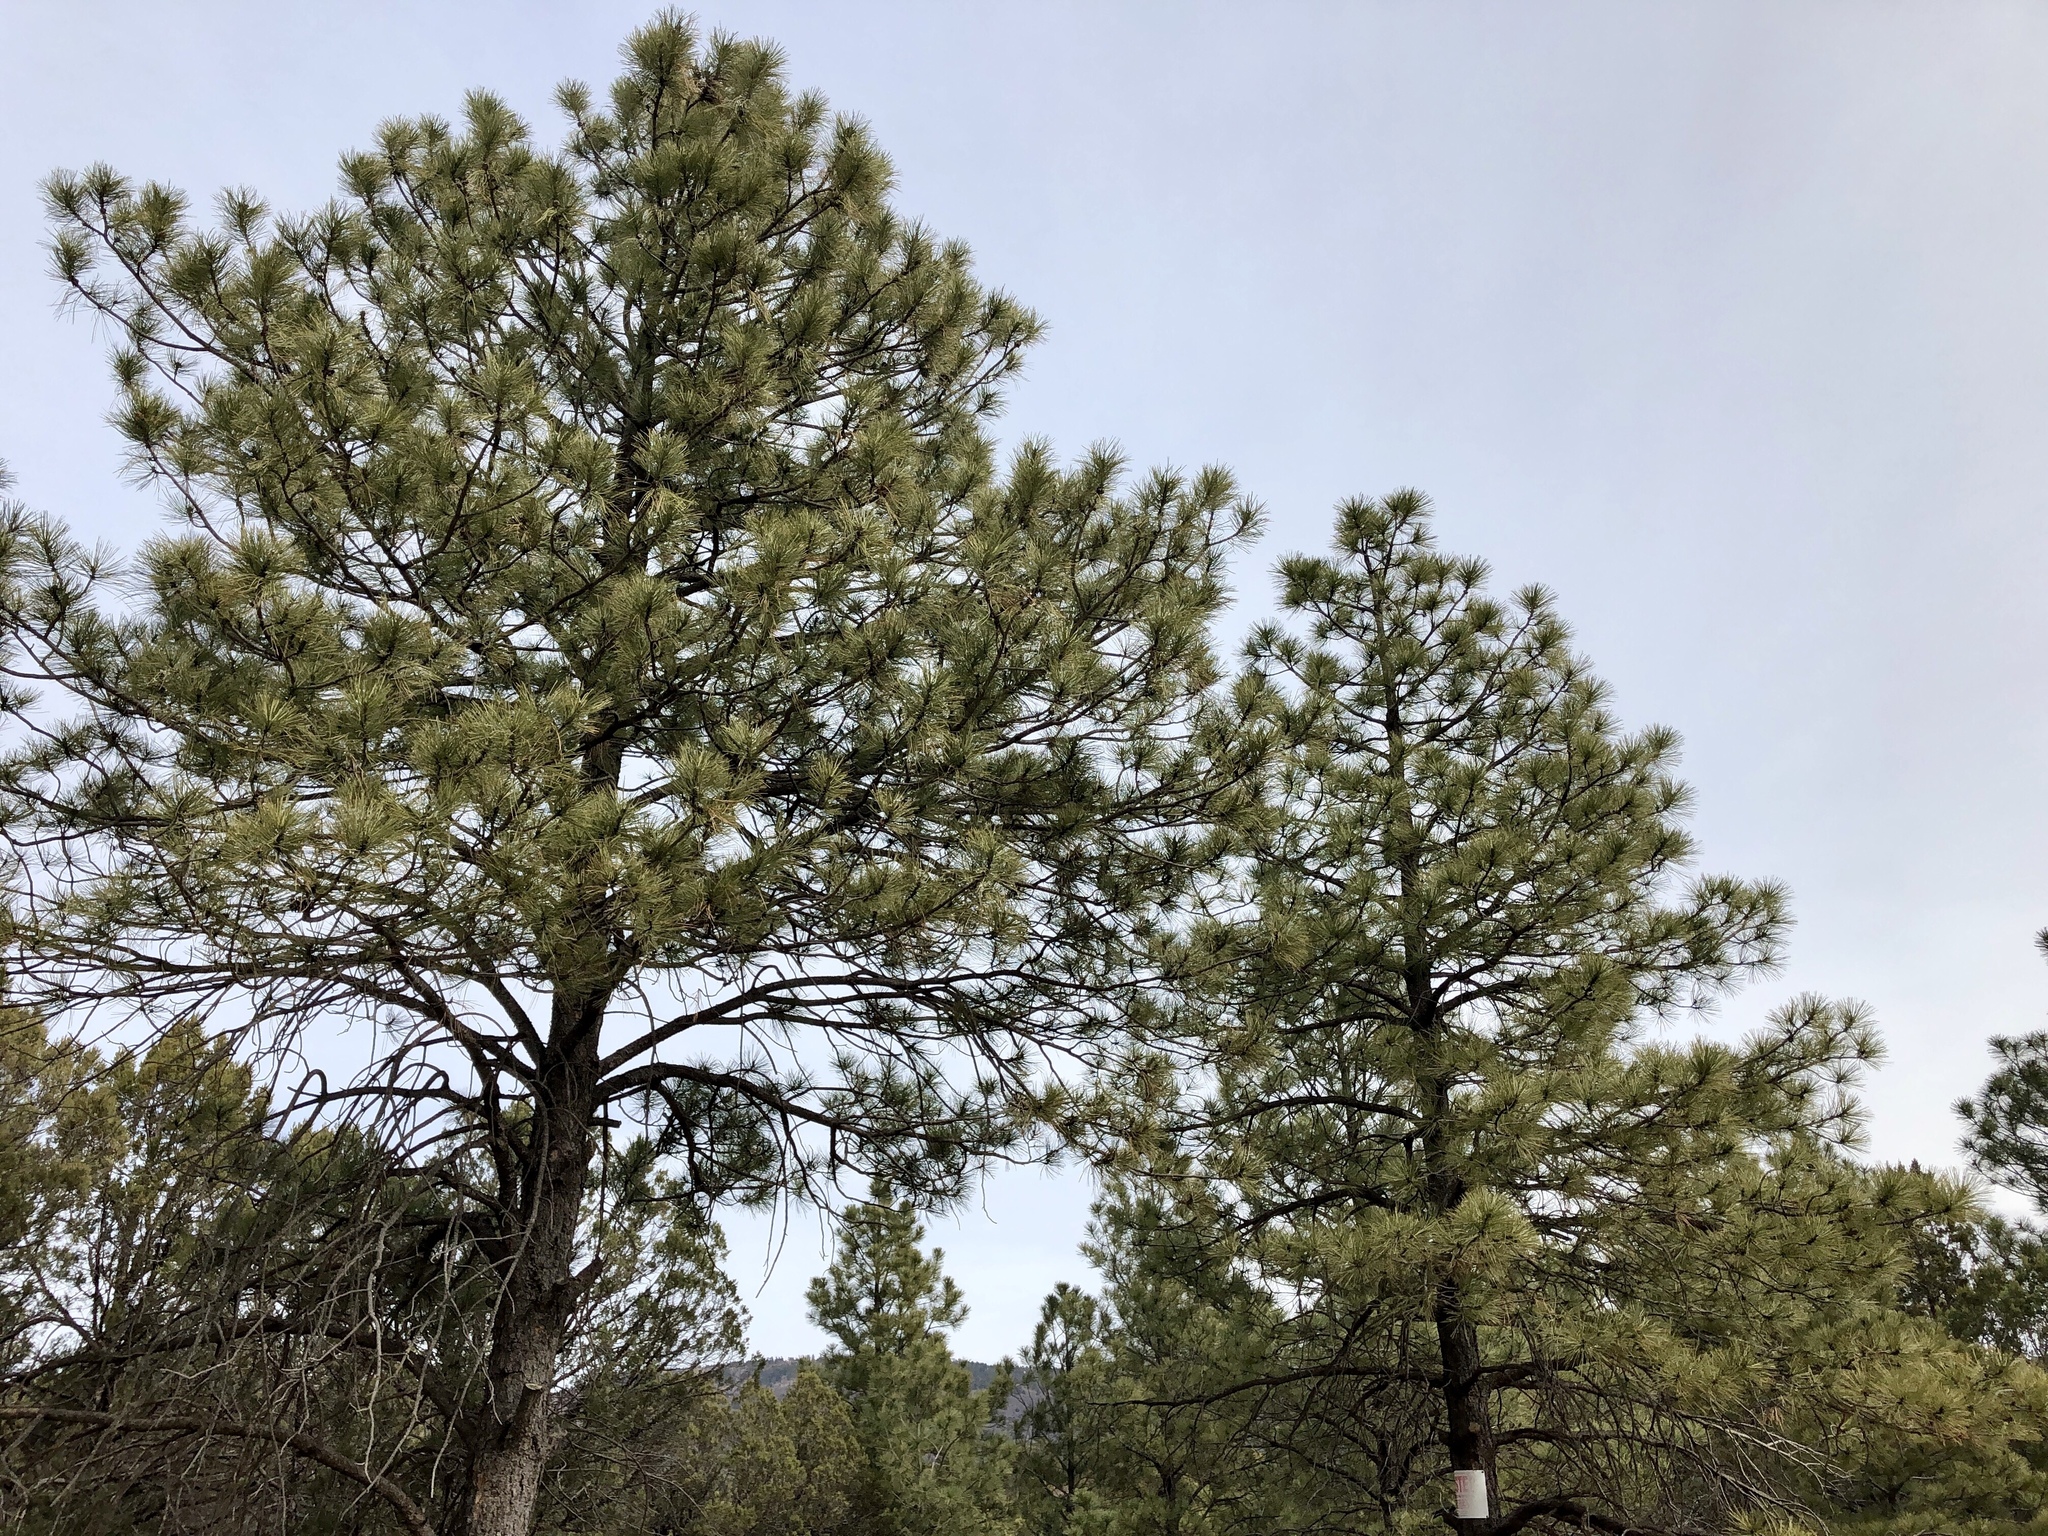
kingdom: Plantae
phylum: Tracheophyta
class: Pinopsida
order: Pinales
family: Pinaceae
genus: Pinus
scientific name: Pinus ponderosa
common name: Western yellow-pine
